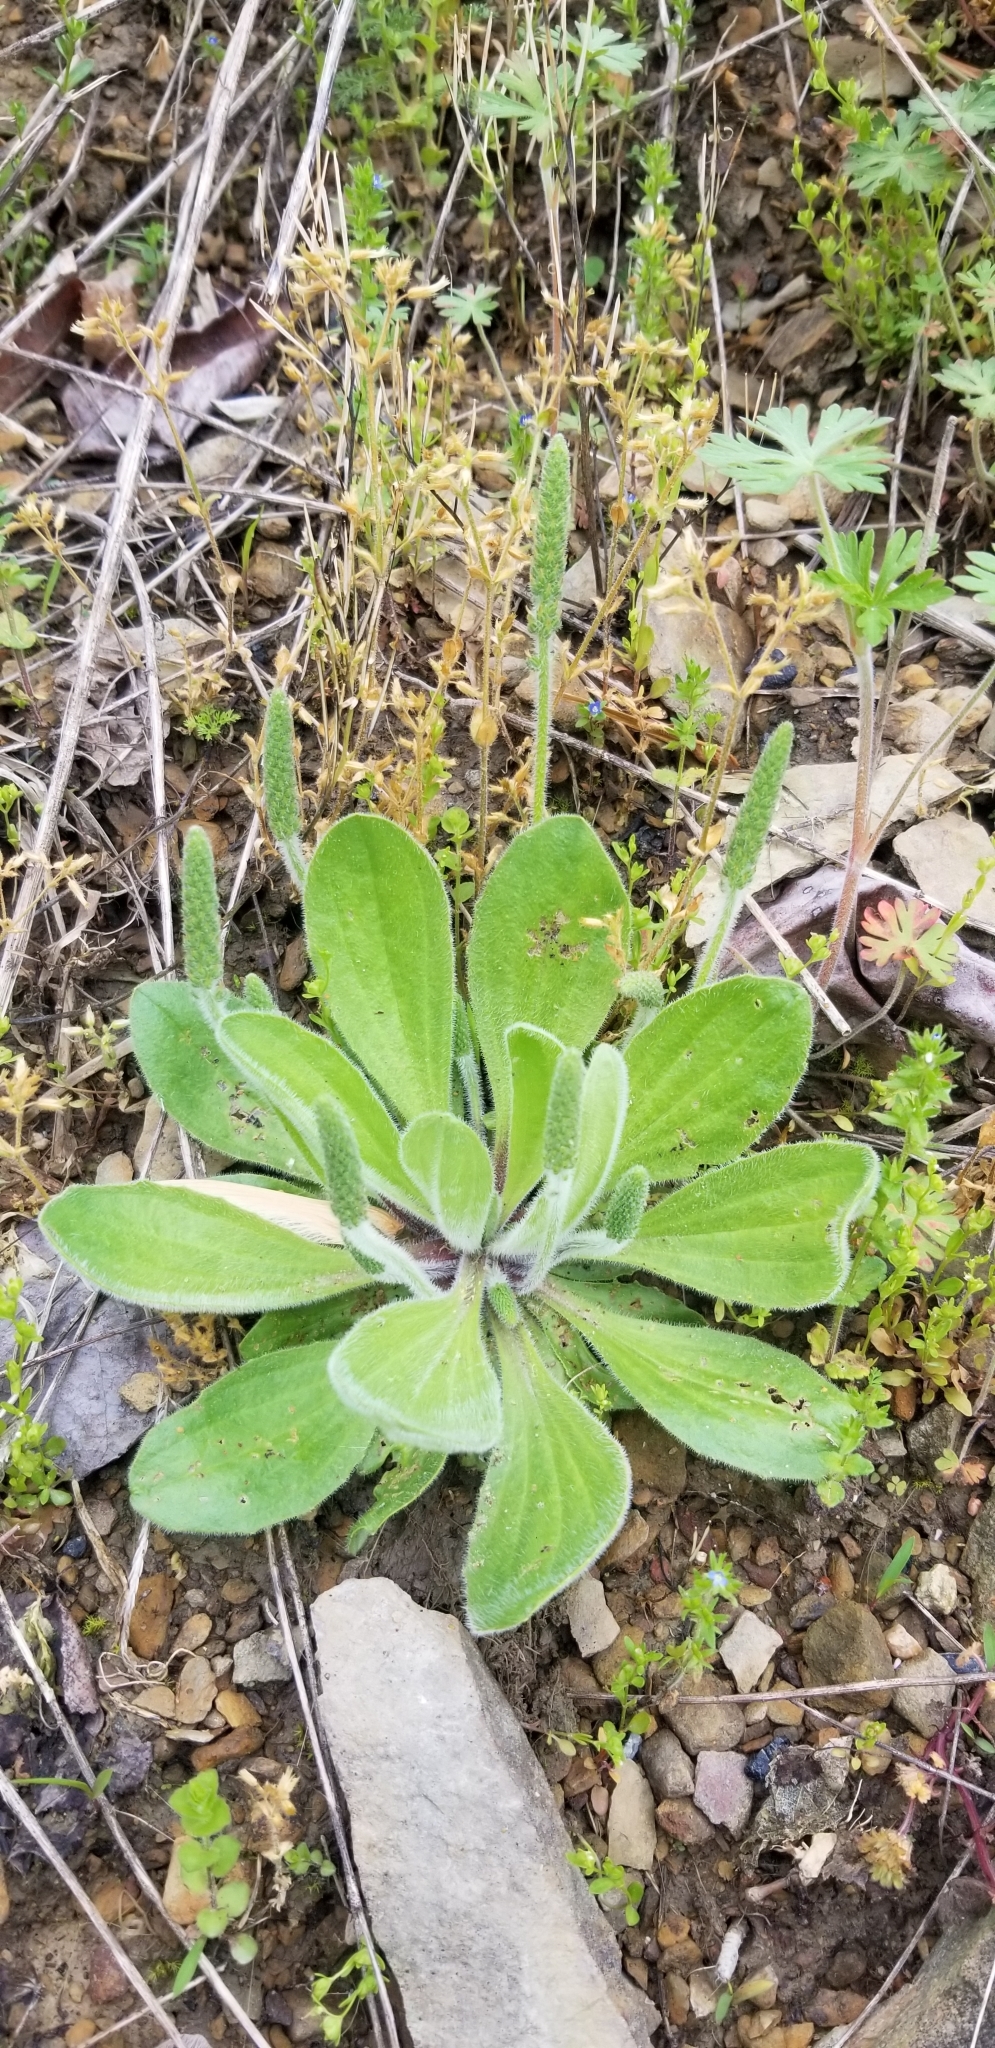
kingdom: Plantae
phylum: Tracheophyta
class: Magnoliopsida
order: Lamiales
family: Plantaginaceae
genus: Plantago
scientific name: Plantago virginica
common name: Hoary plantain
